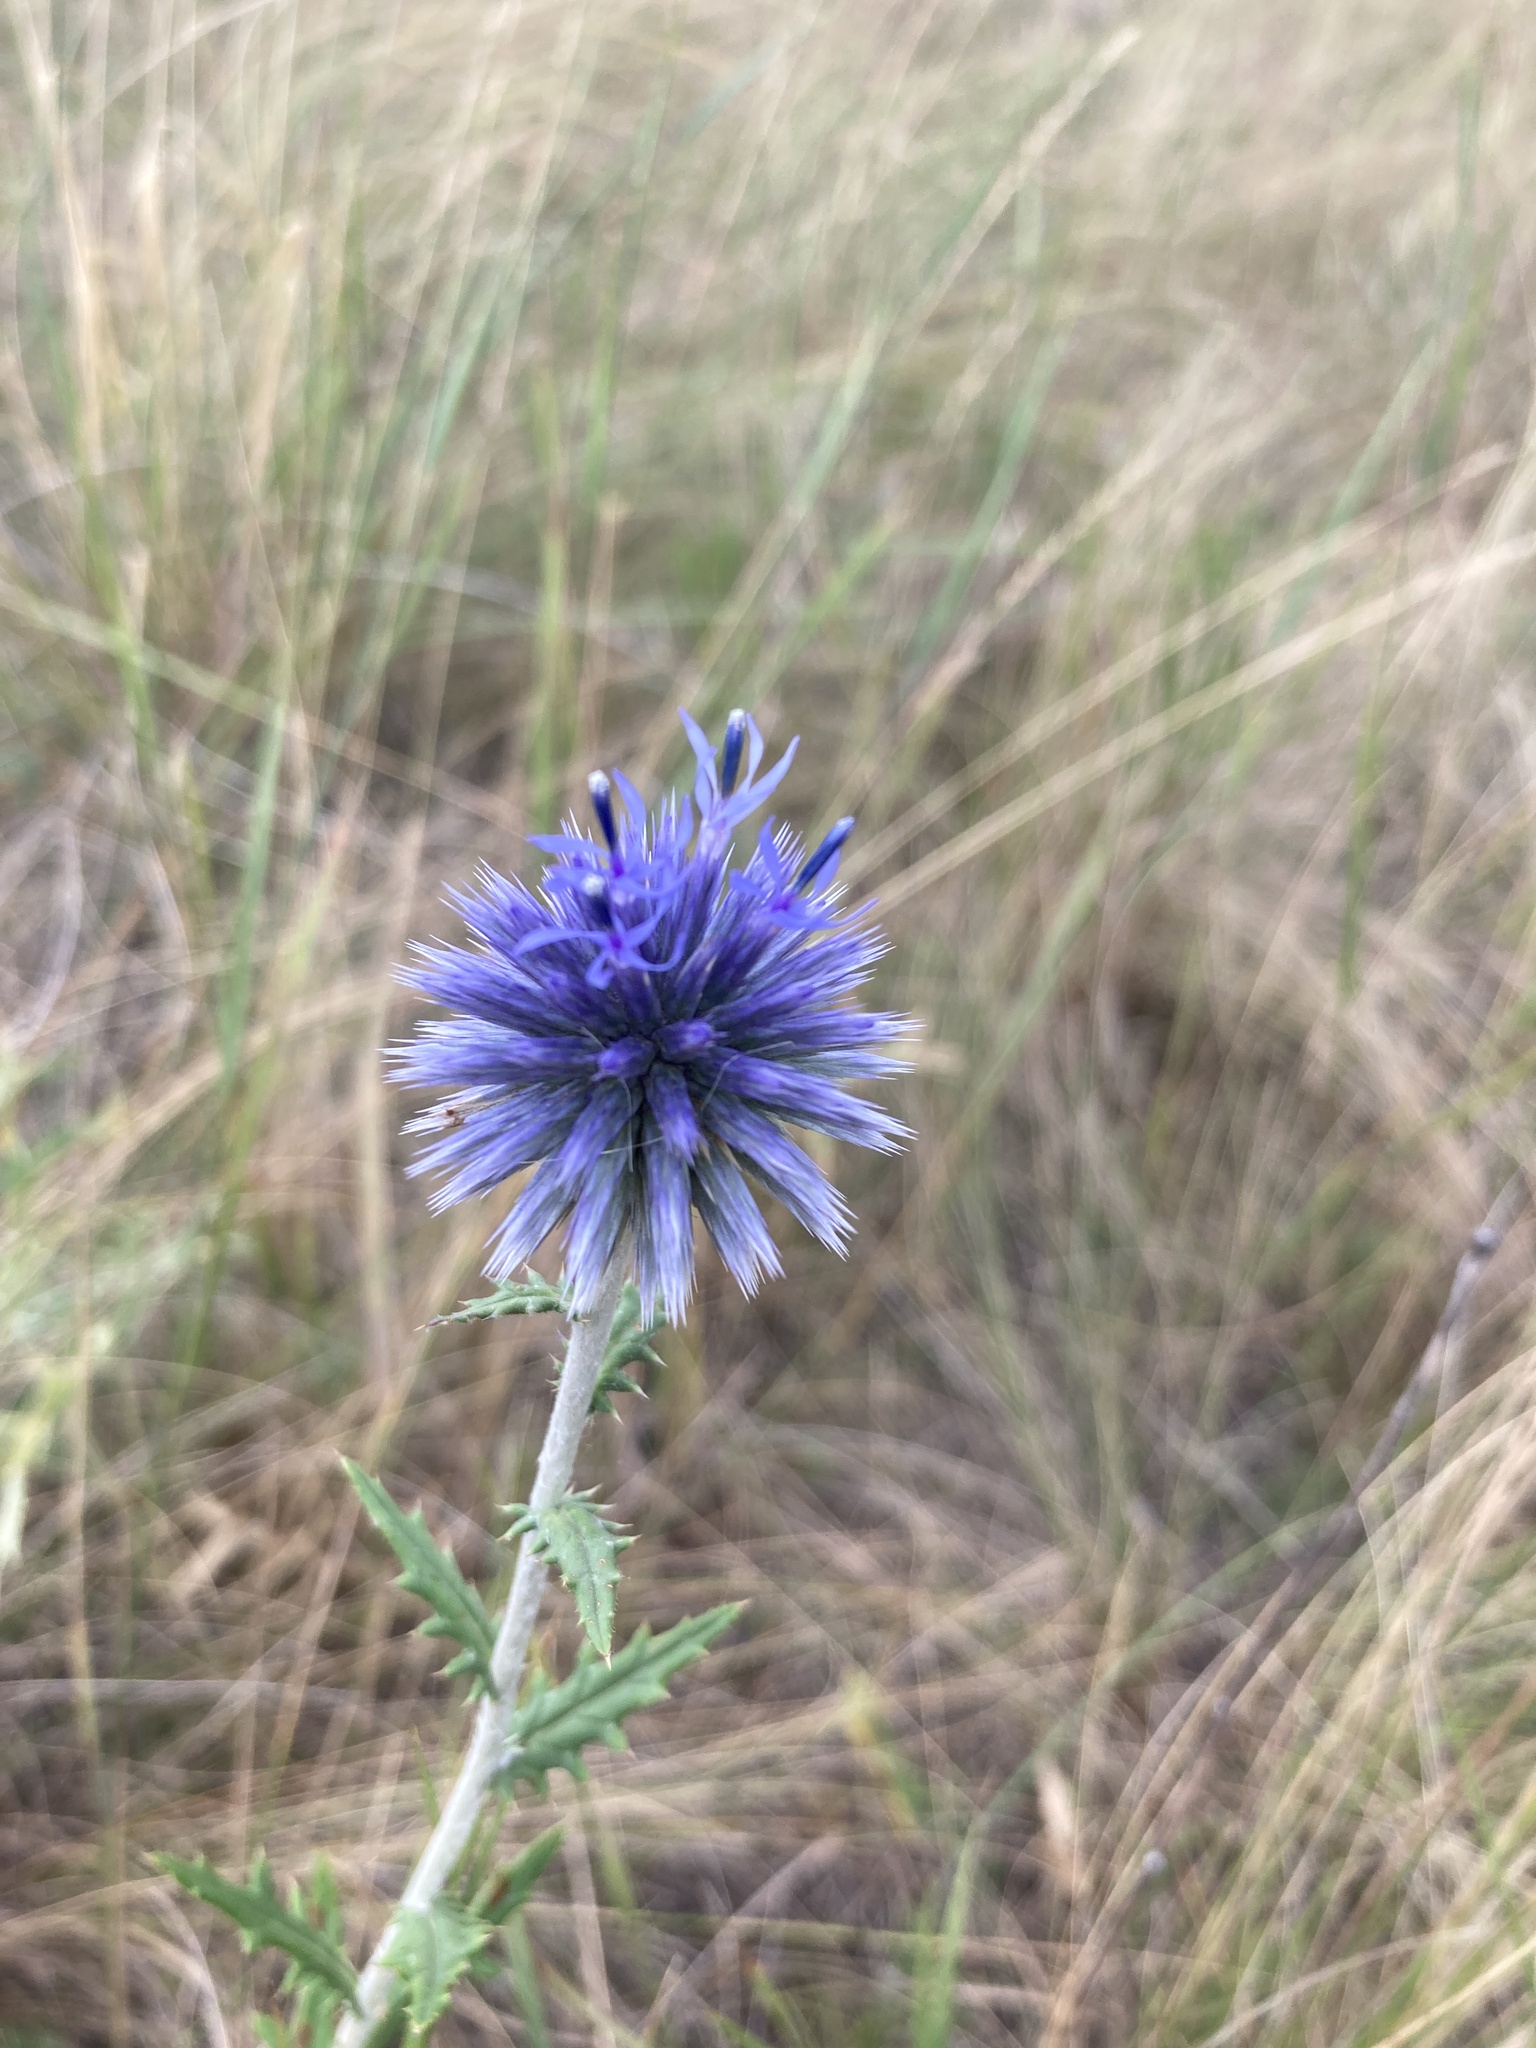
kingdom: Plantae
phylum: Tracheophyta
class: Magnoliopsida
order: Asterales
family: Asteraceae
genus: Echinops
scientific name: Echinops ritro
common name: Globe thistle
